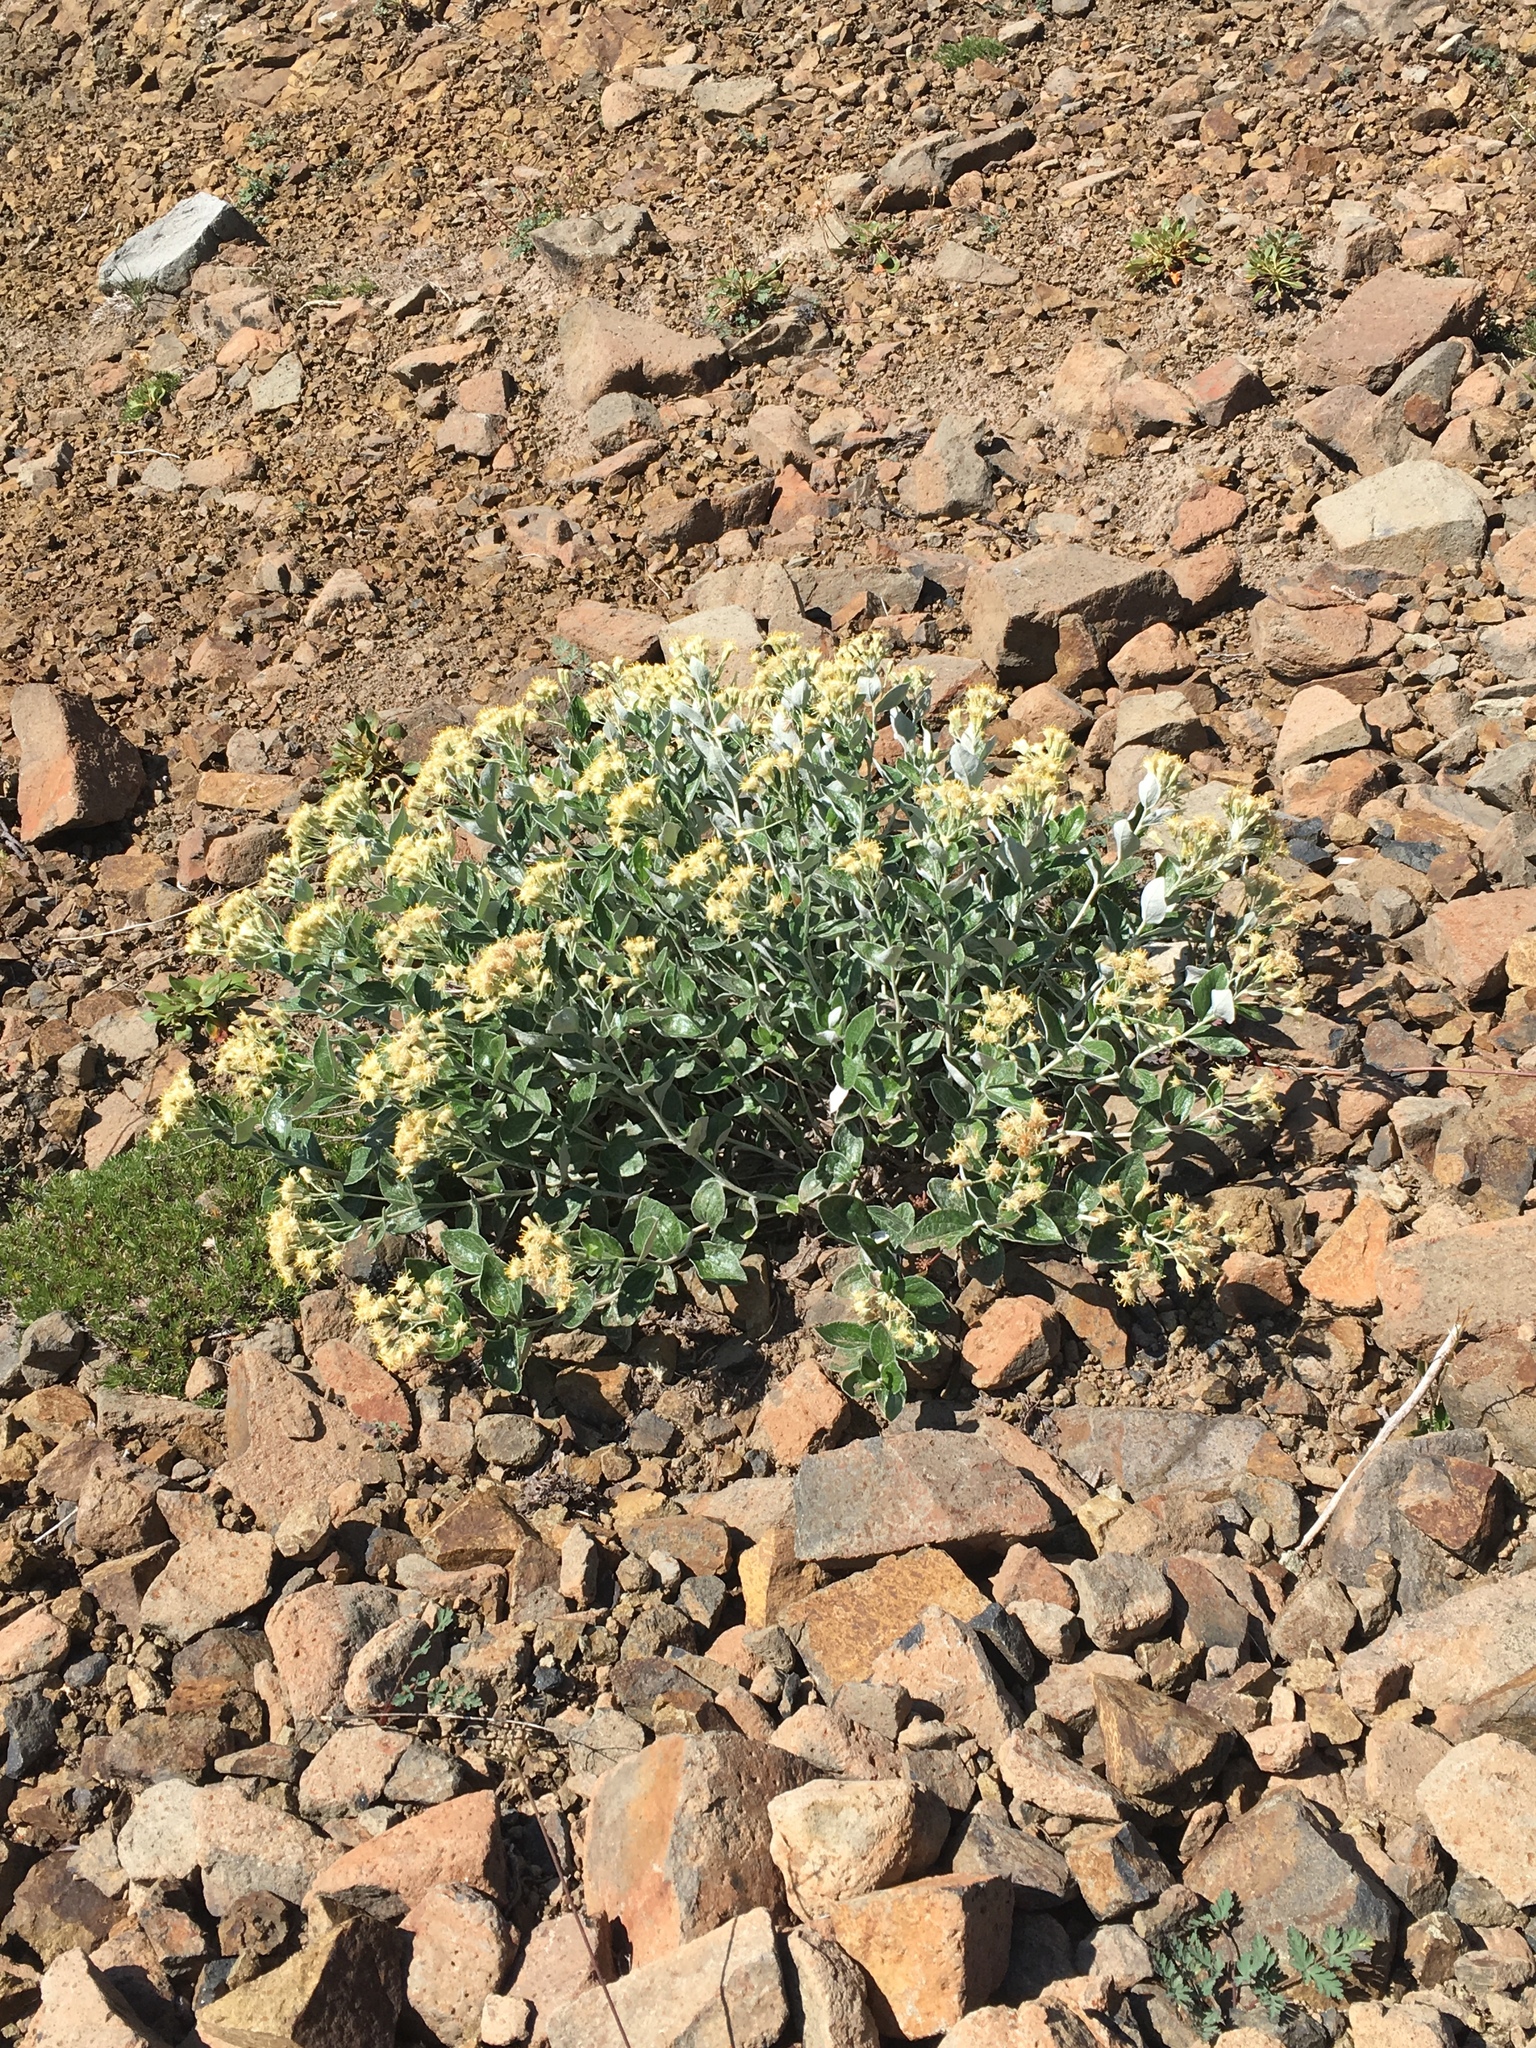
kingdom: Plantae
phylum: Tracheophyta
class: Magnoliopsida
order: Asterales
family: Asteraceae
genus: Luina
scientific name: Luina hypoleuca
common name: Little-leaved luina
